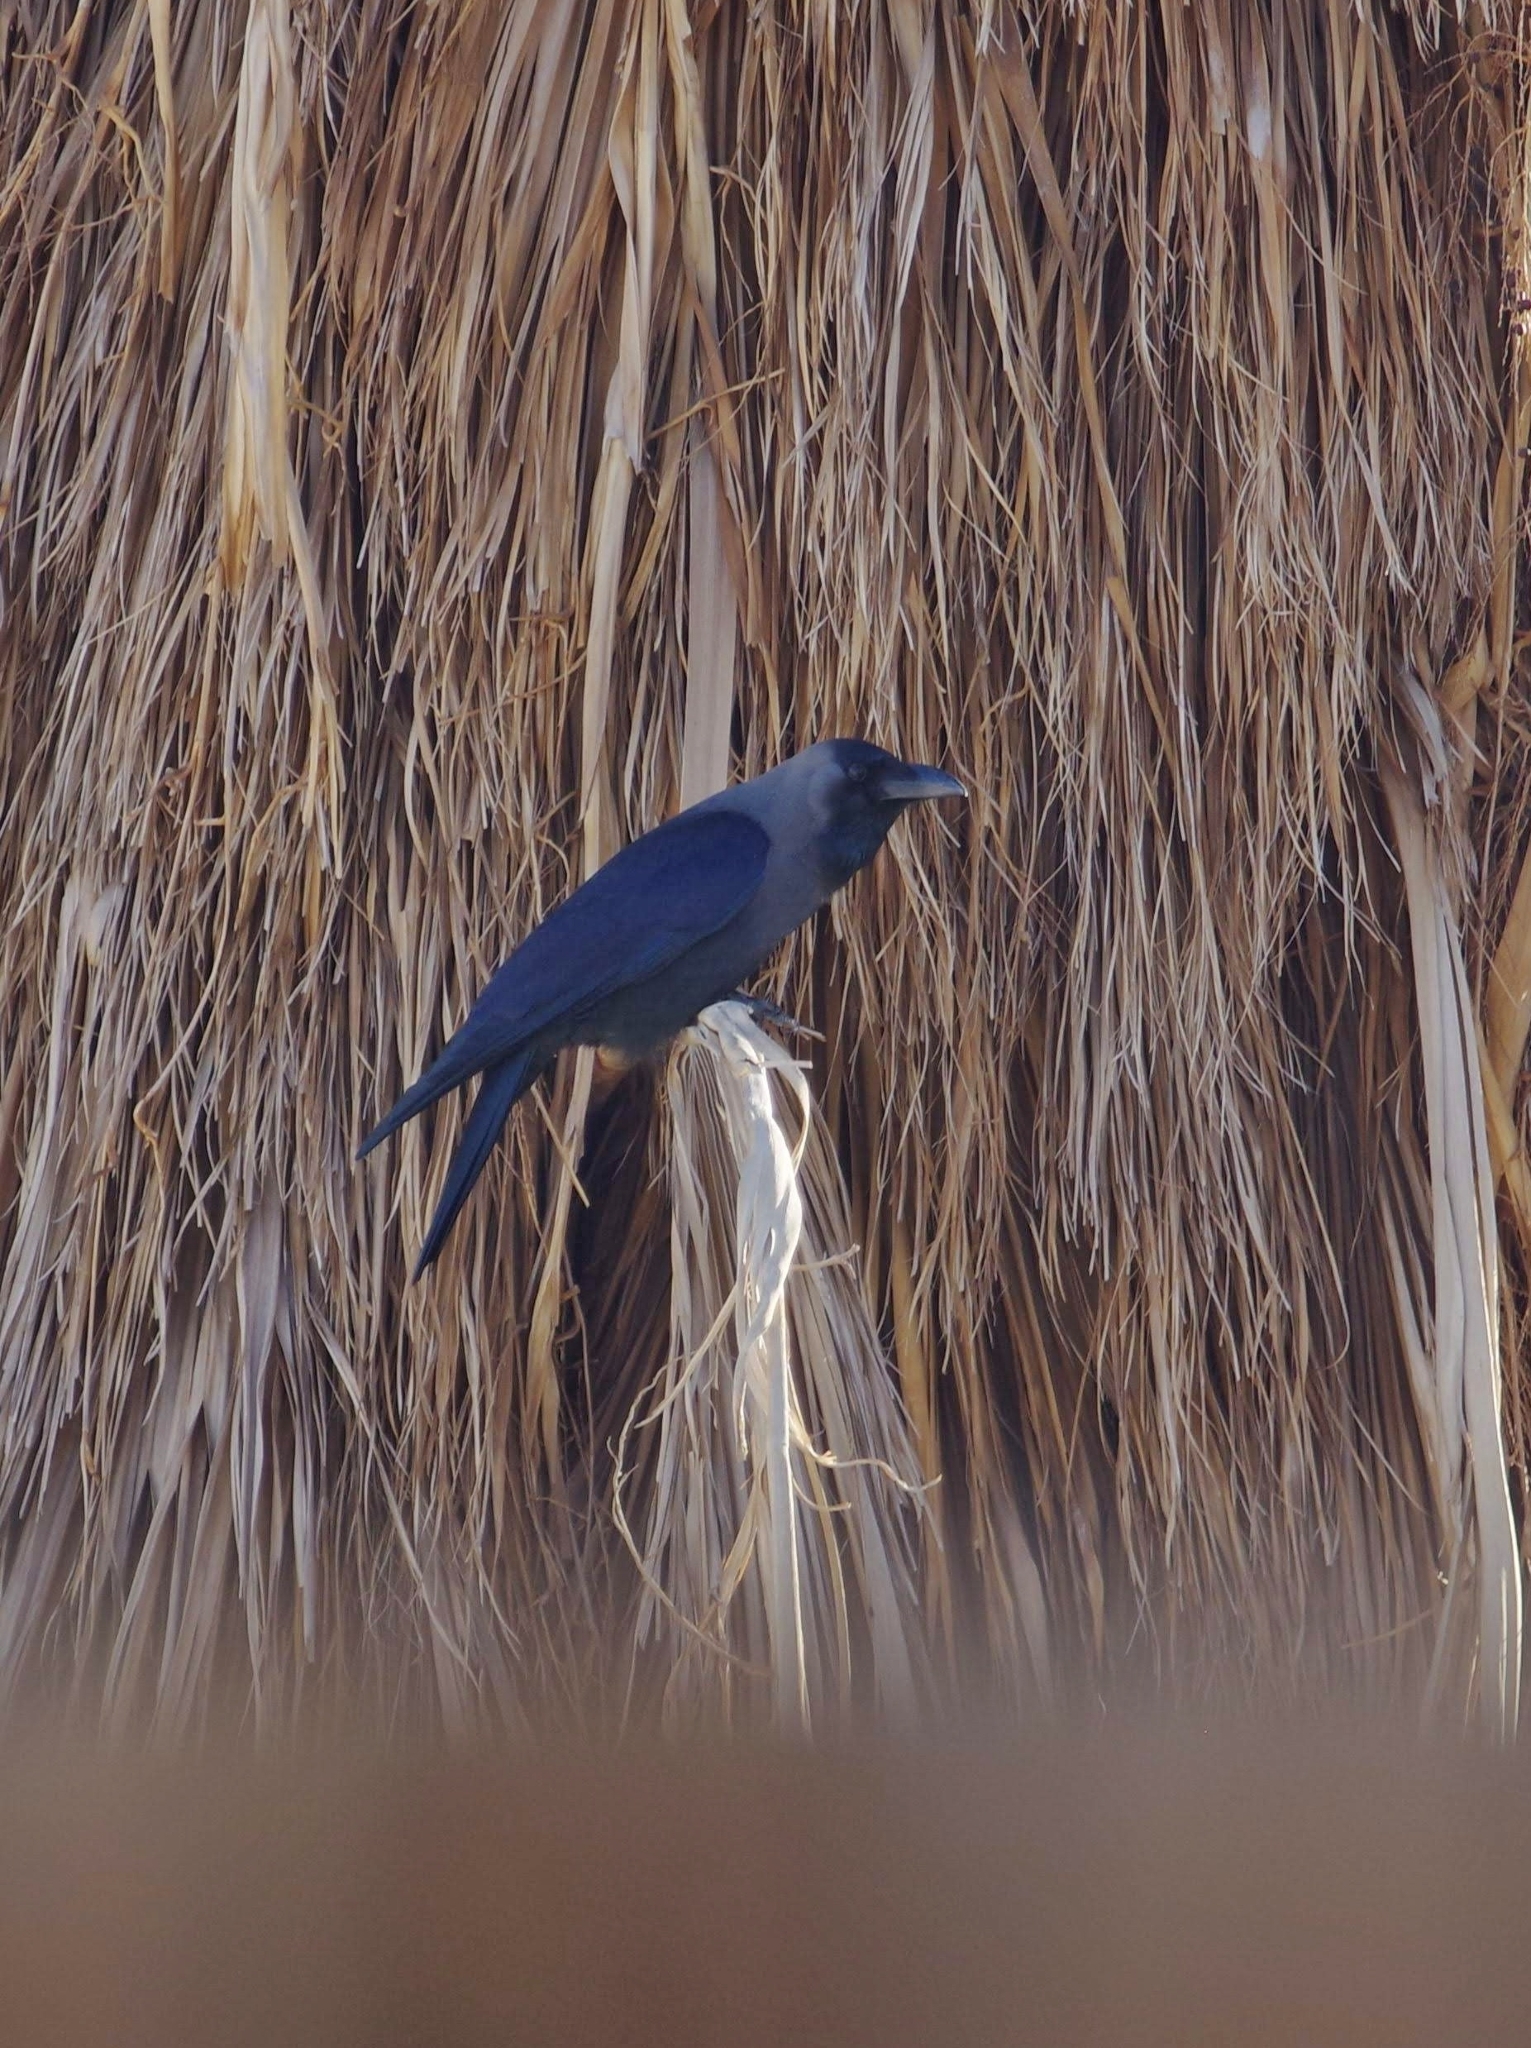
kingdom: Animalia
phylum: Chordata
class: Aves
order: Passeriformes
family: Corvidae
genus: Corvus
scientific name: Corvus splendens
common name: House crow
